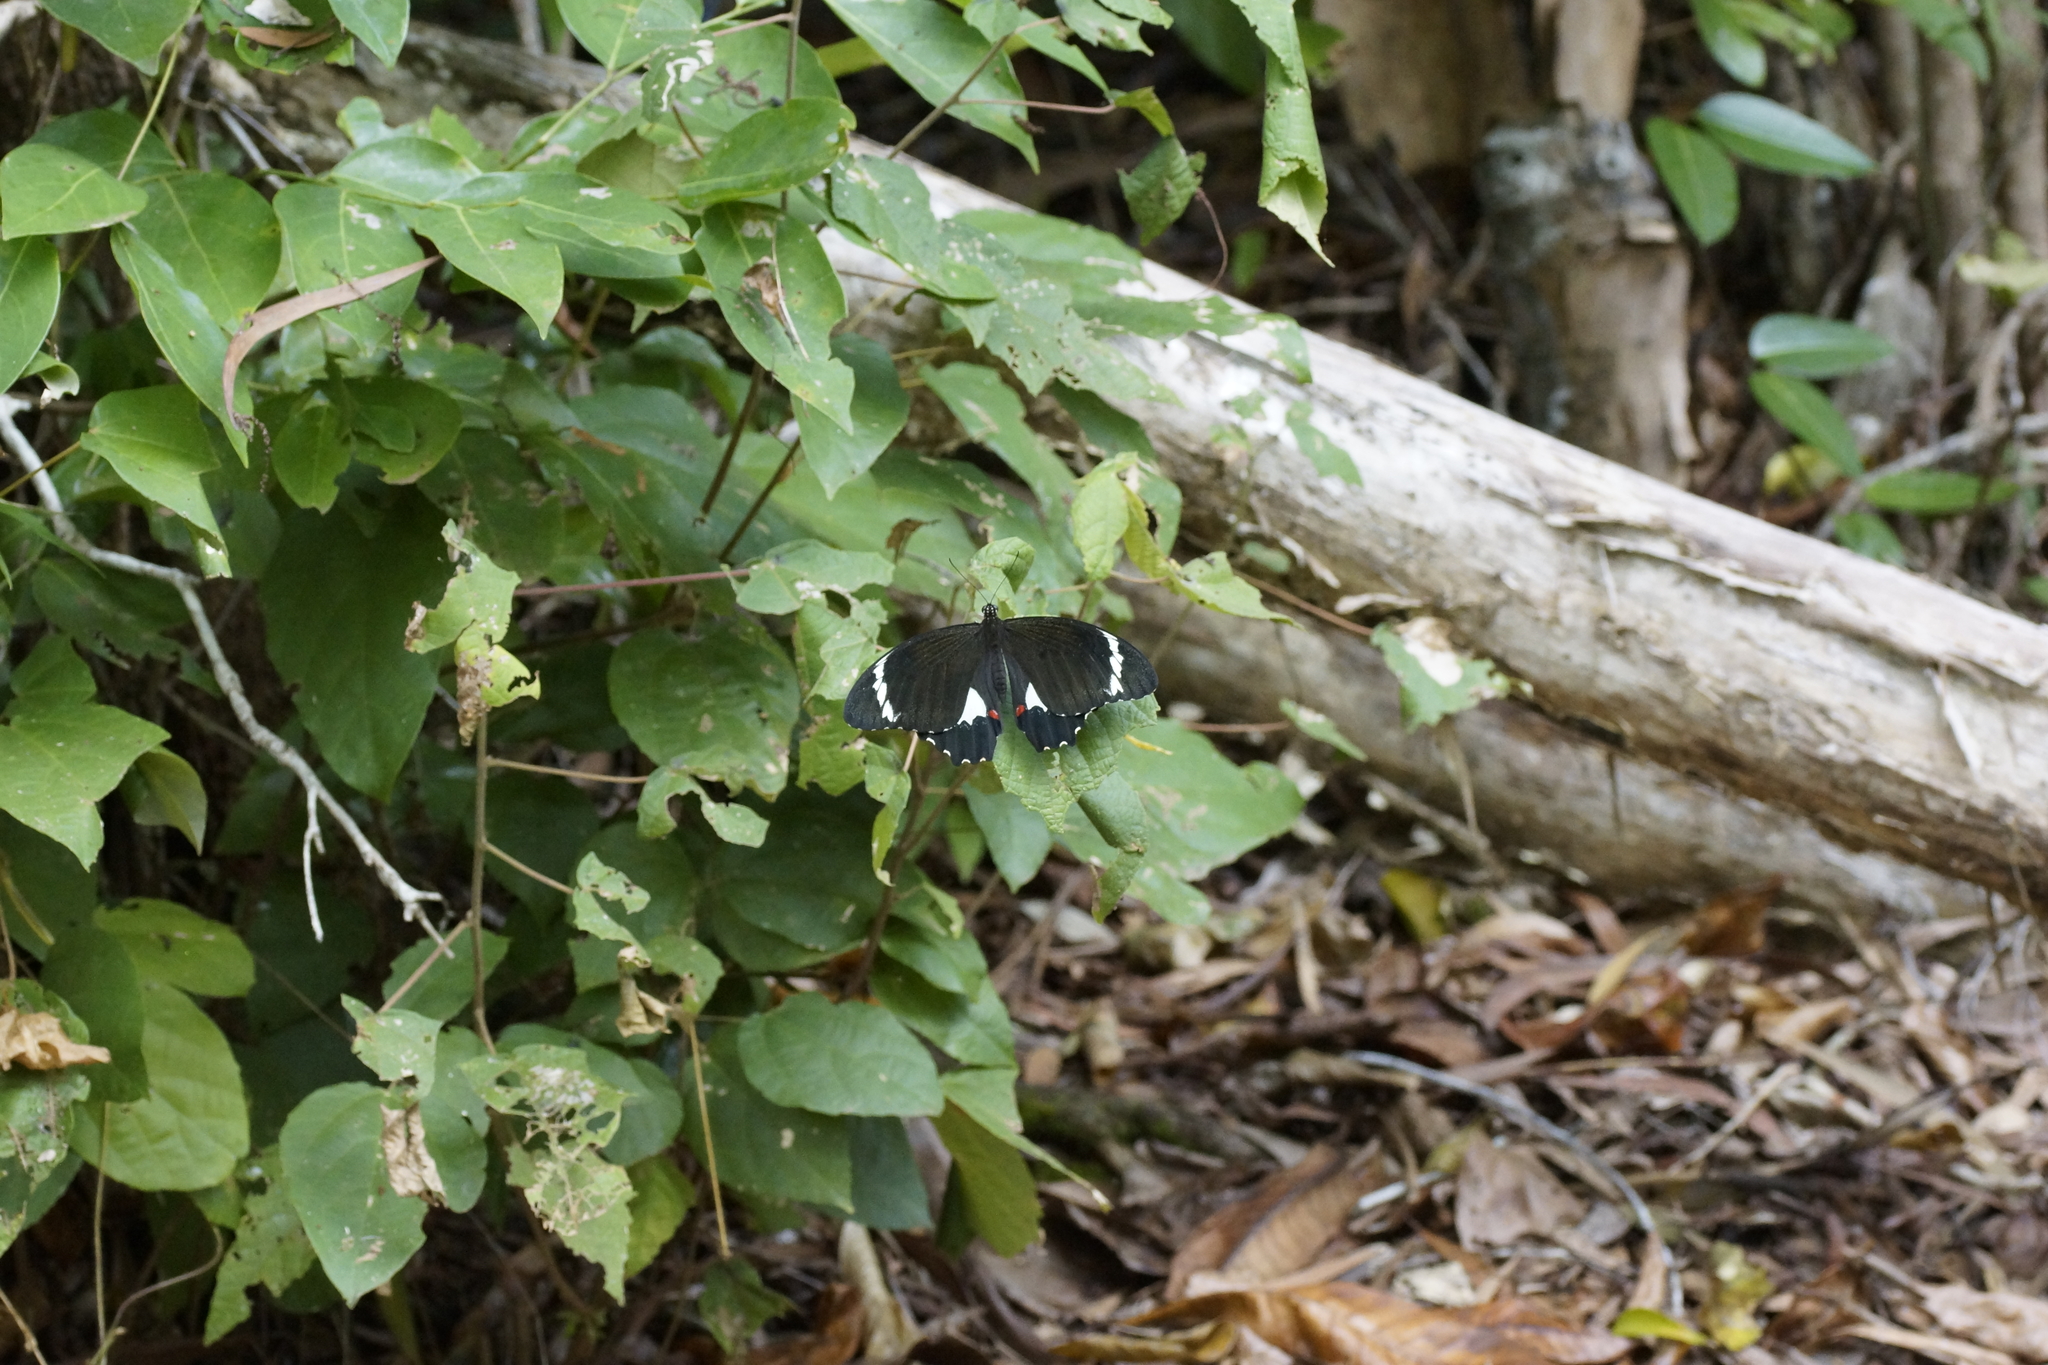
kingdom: Animalia
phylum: Arthropoda
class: Insecta
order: Lepidoptera
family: Papilionidae
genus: Papilio
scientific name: Papilio aegeus
